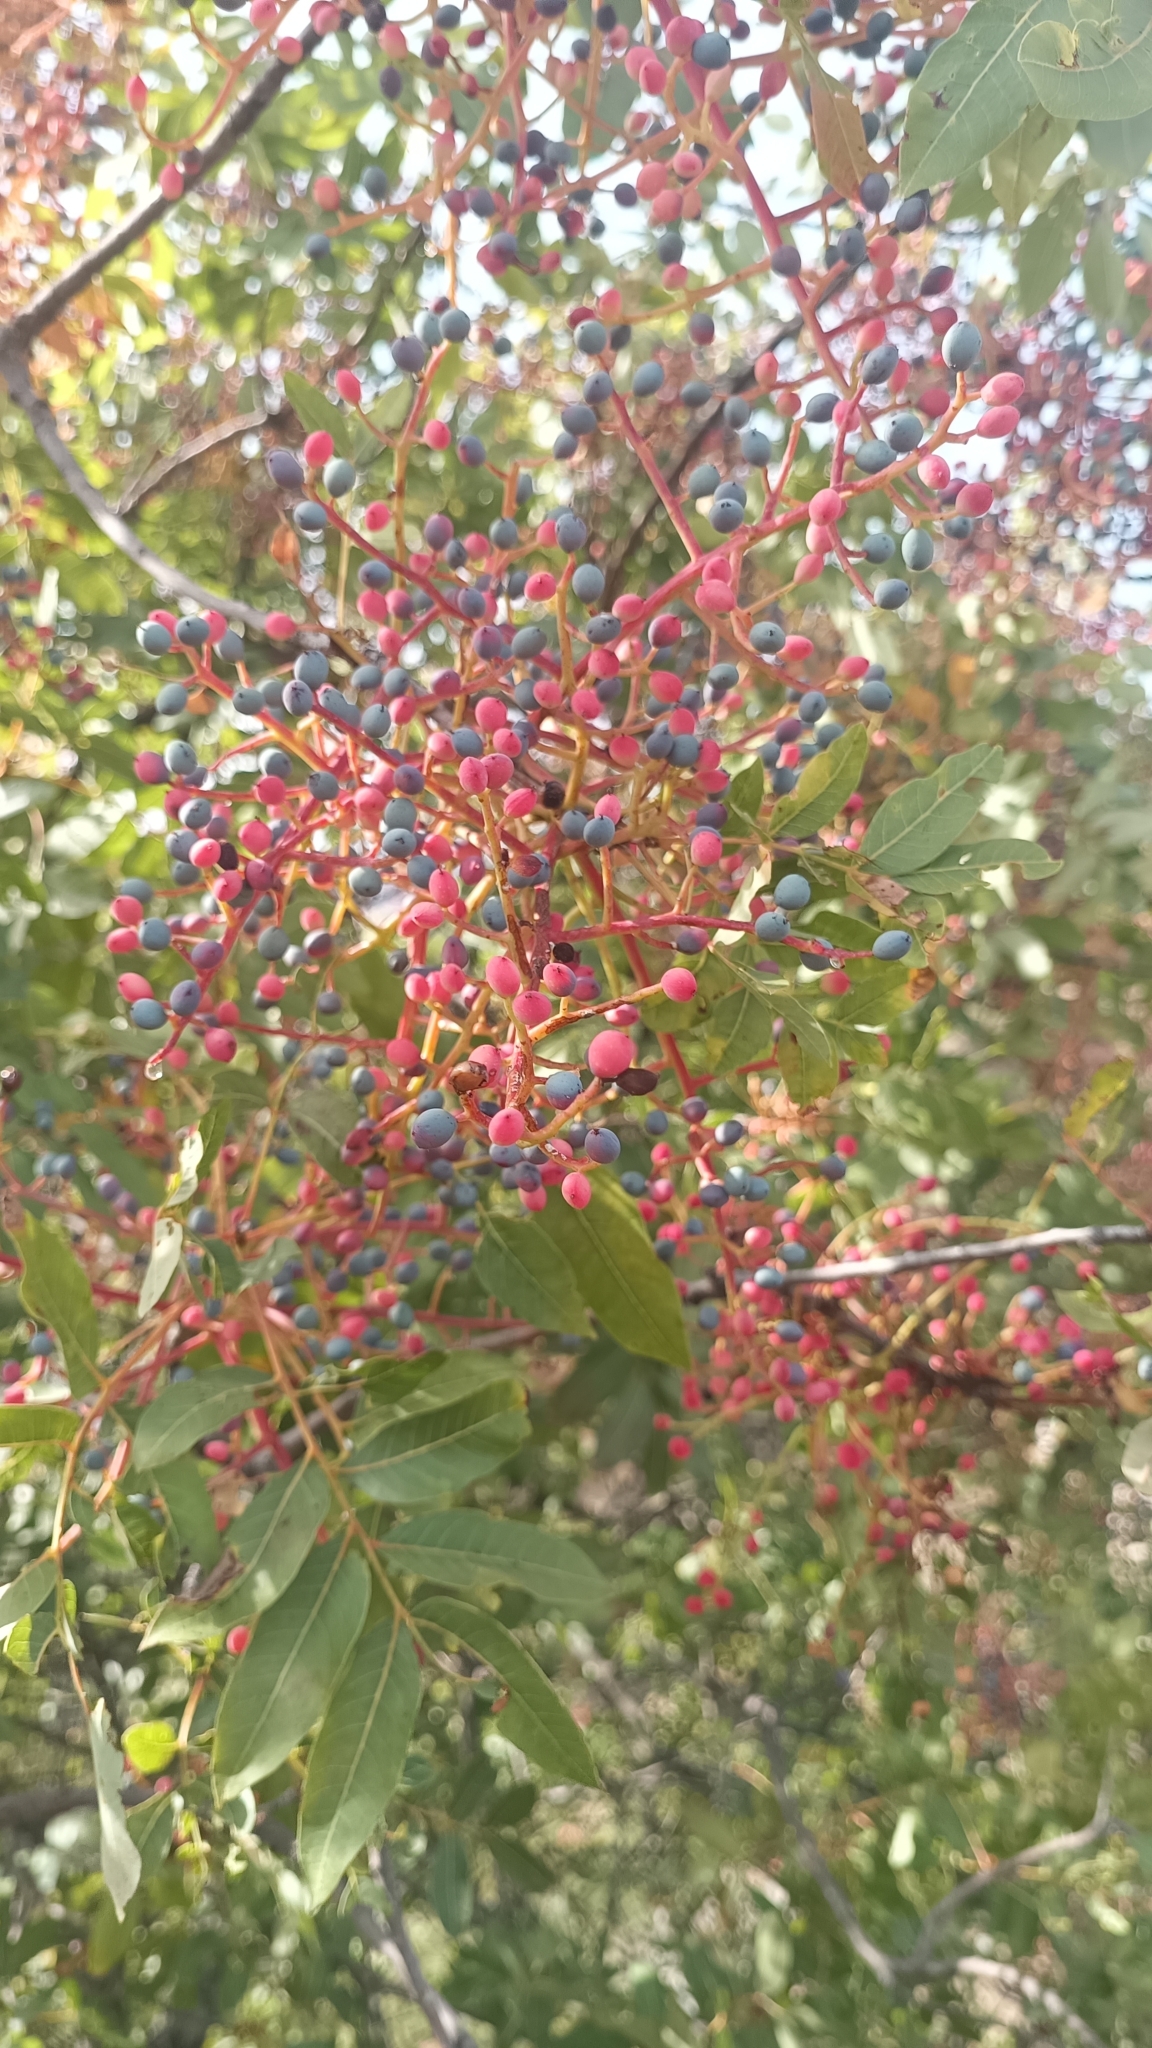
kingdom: Plantae
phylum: Tracheophyta
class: Magnoliopsida
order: Sapindales
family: Anacardiaceae
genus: Pistacia
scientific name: Pistacia terebinthus
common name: Terebinth
